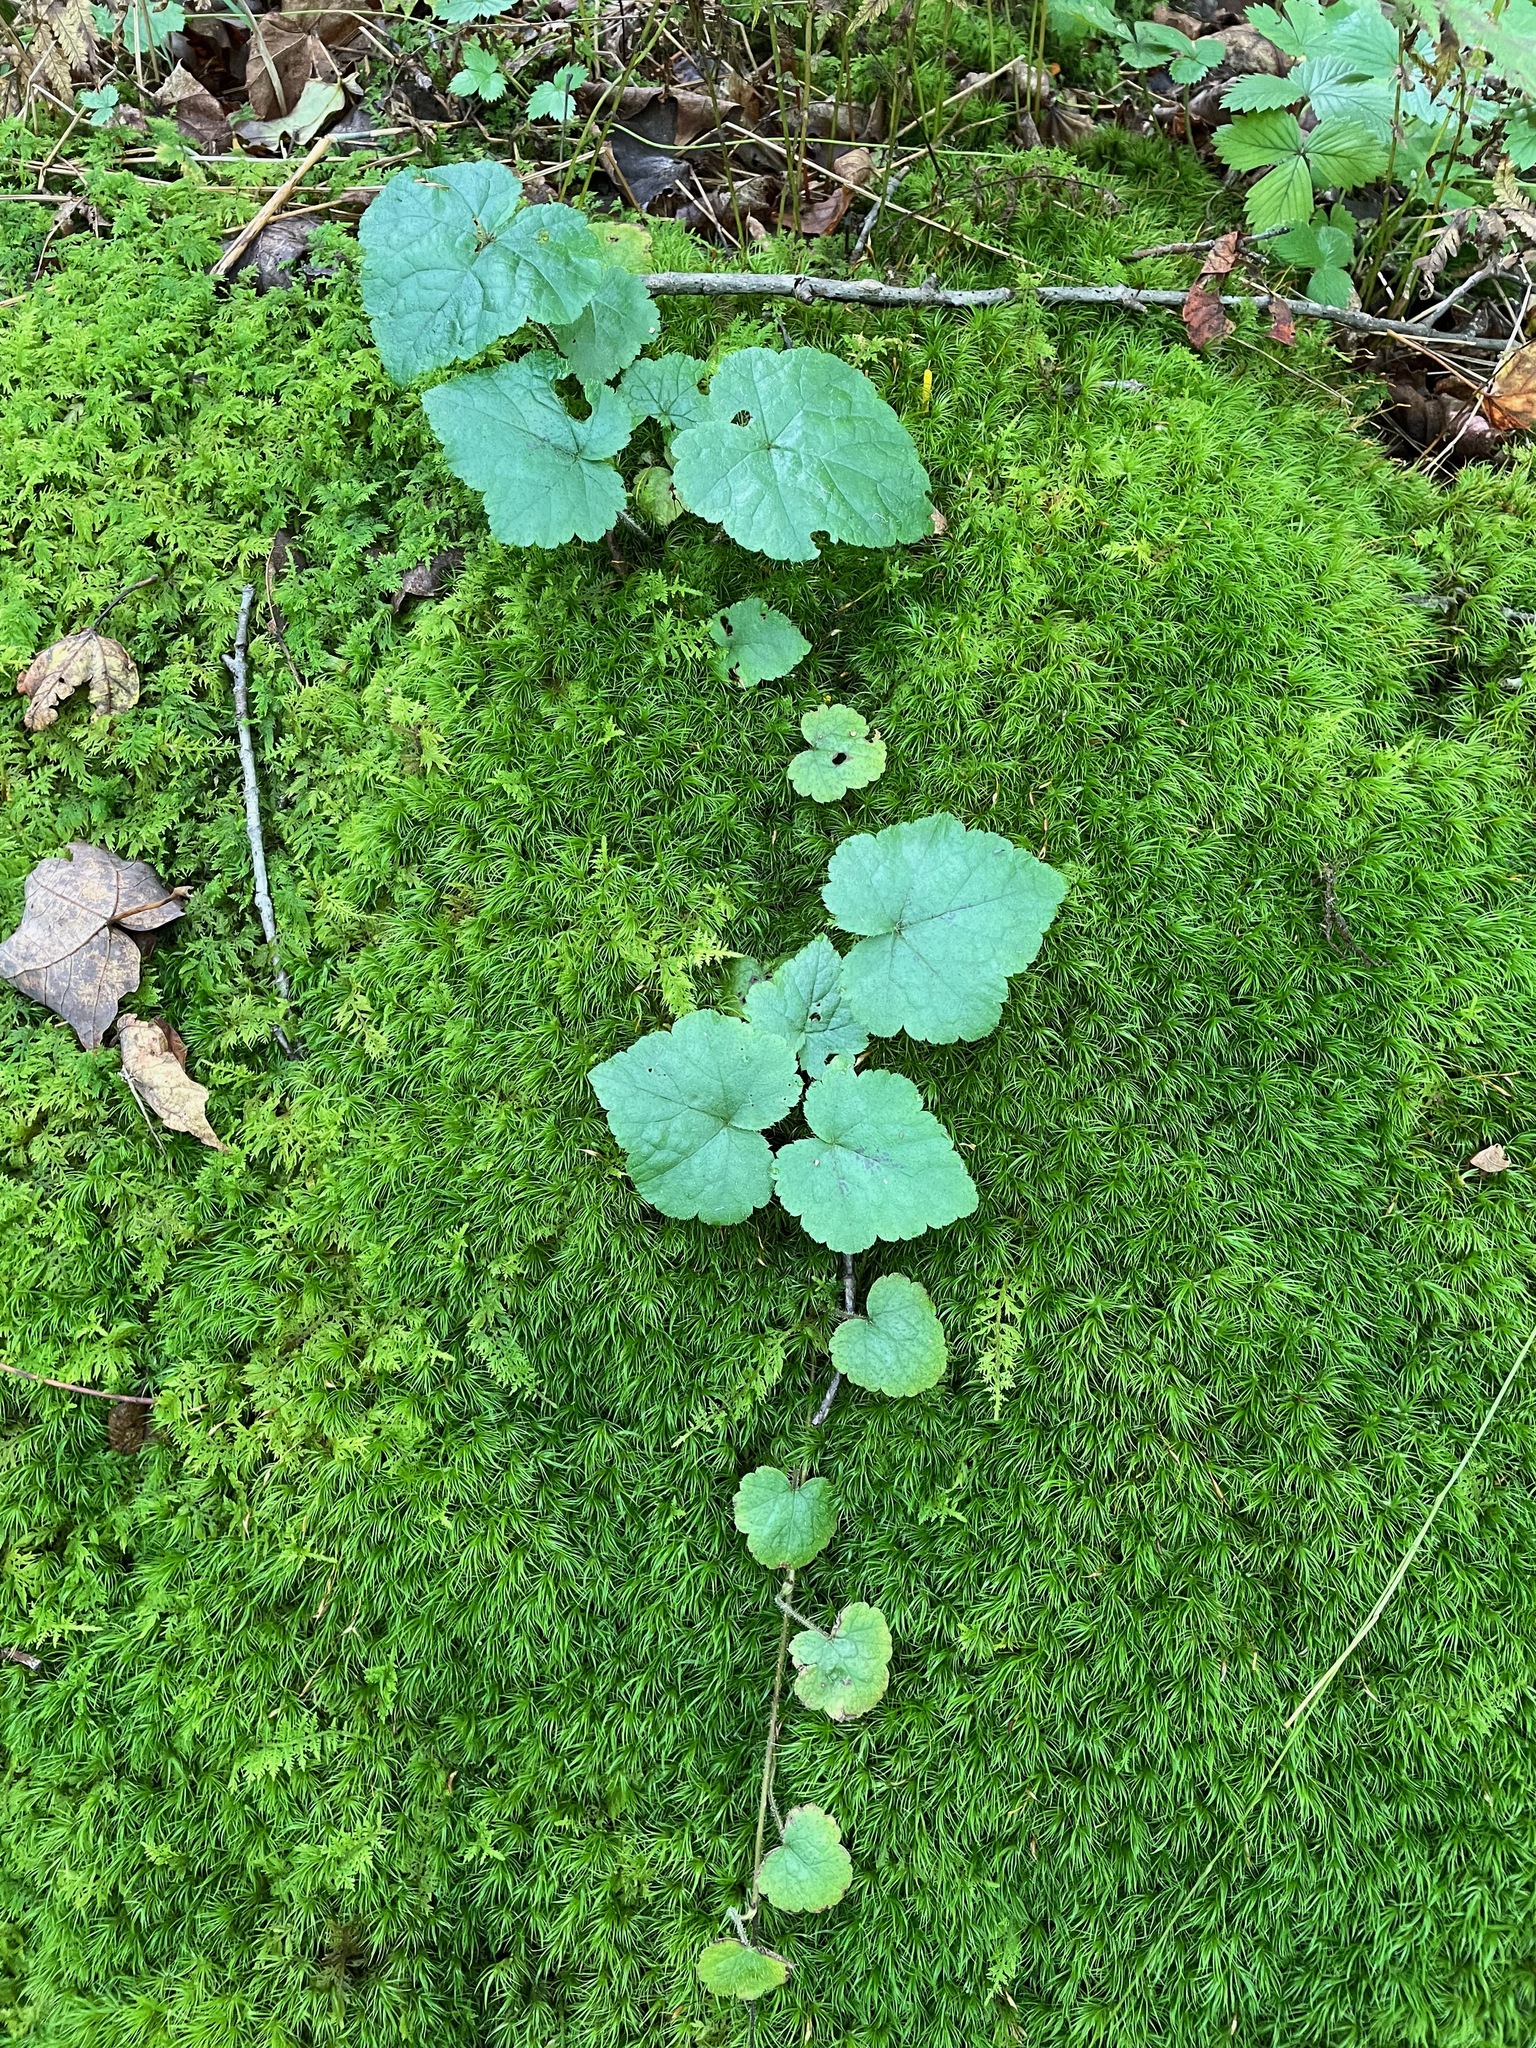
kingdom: Plantae
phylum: Tracheophyta
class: Magnoliopsida
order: Saxifragales
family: Saxifragaceae
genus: Tiarella
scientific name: Tiarella stolonifera
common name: Stoloniferous foamflower
